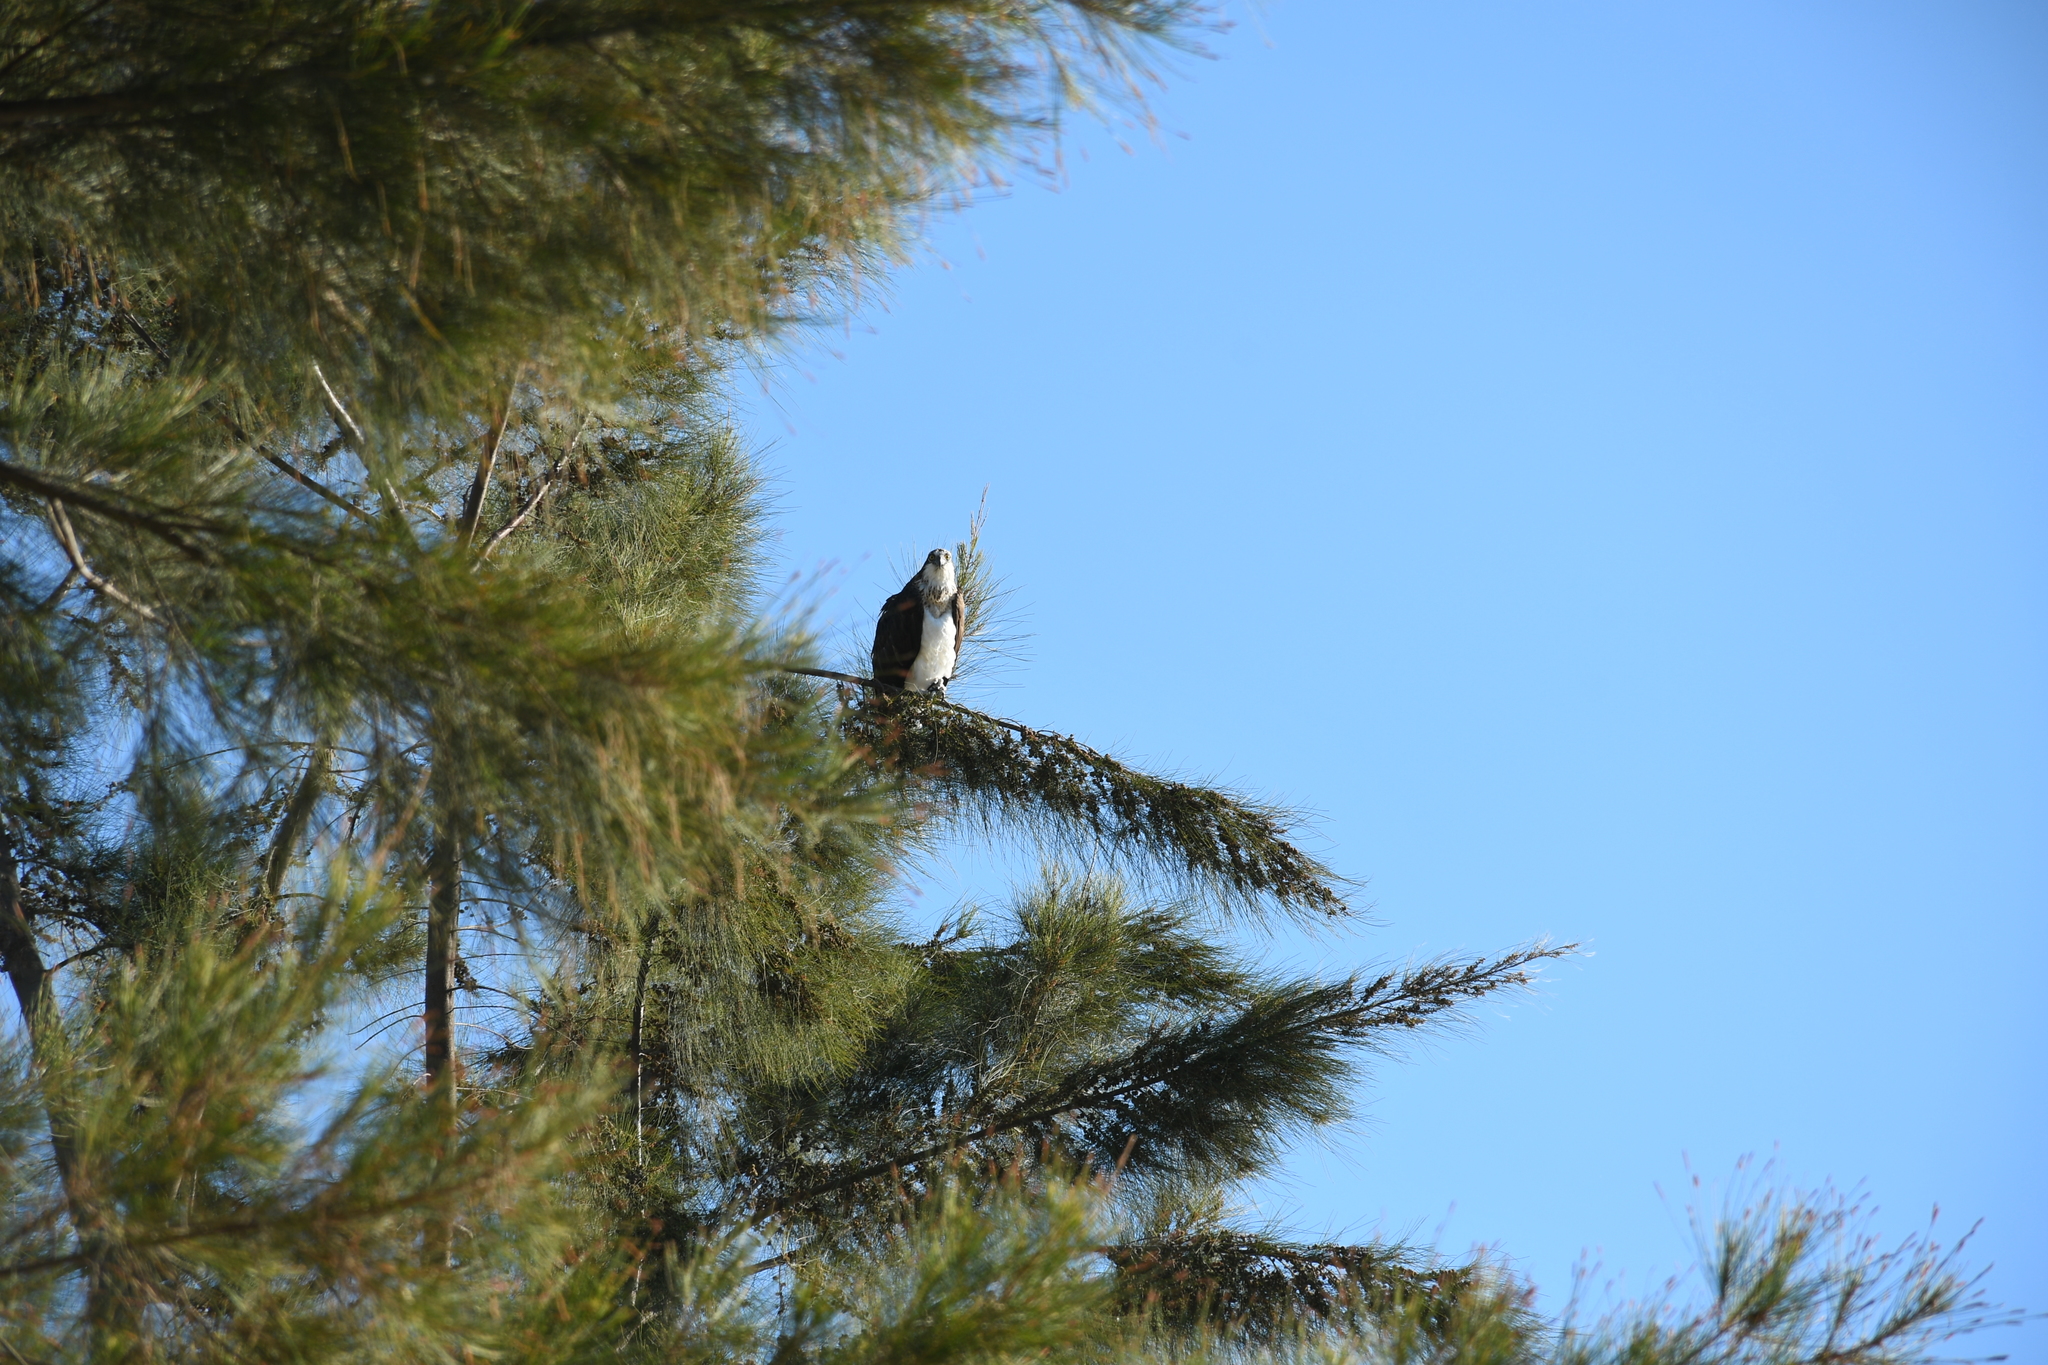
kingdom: Animalia
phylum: Chordata
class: Aves
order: Accipitriformes
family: Pandionidae
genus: Pandion
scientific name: Pandion haliaetus
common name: Osprey
